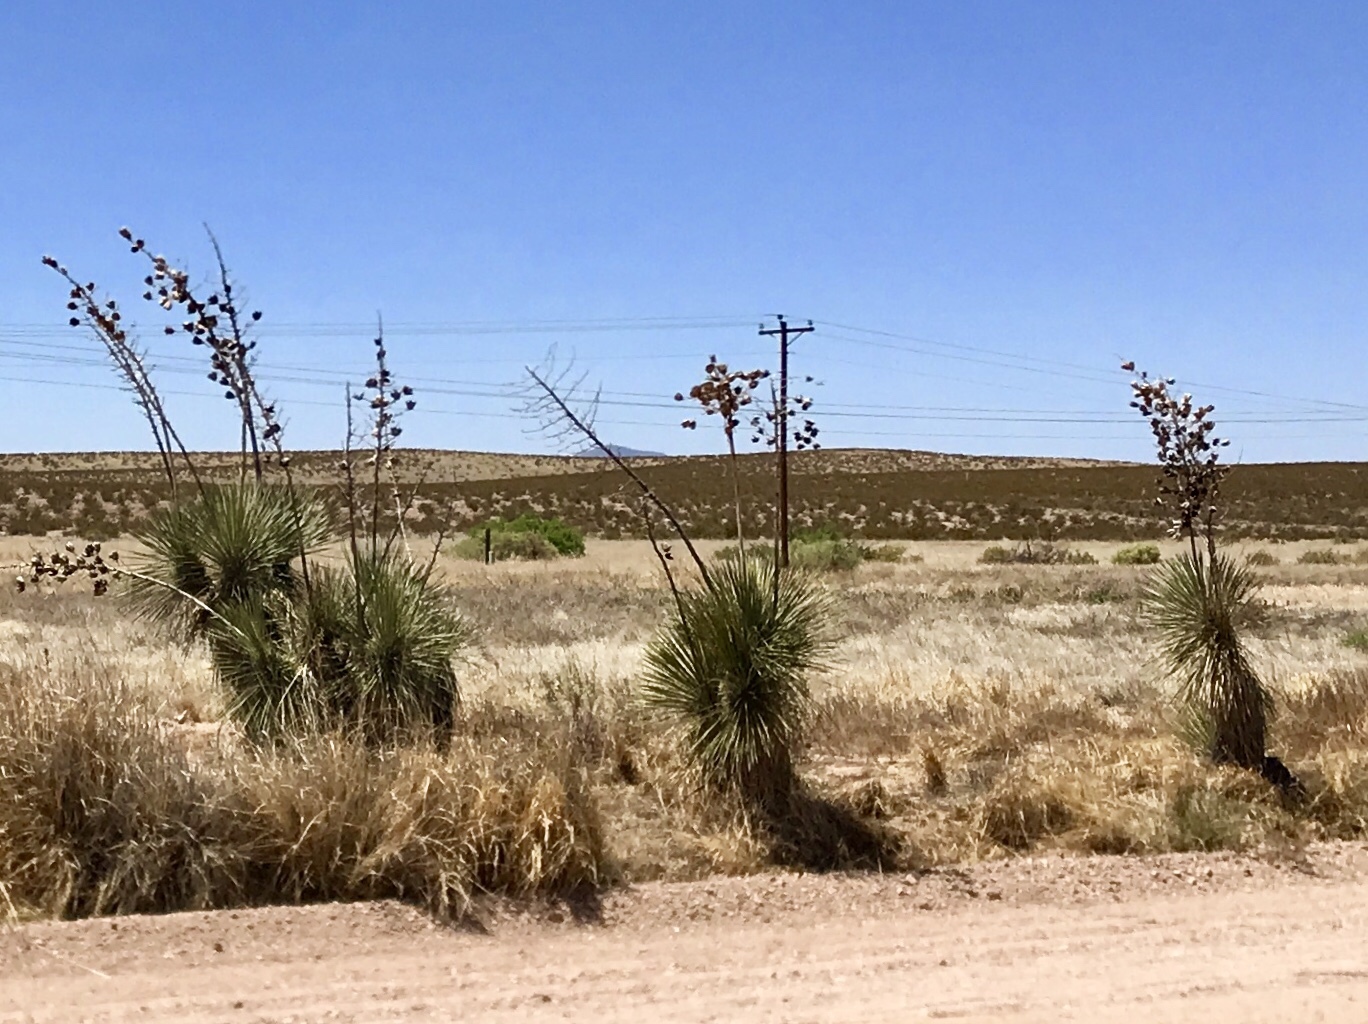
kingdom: Plantae
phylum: Tracheophyta
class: Liliopsida
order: Asparagales
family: Asparagaceae
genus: Yucca
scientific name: Yucca elata
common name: Palmella
